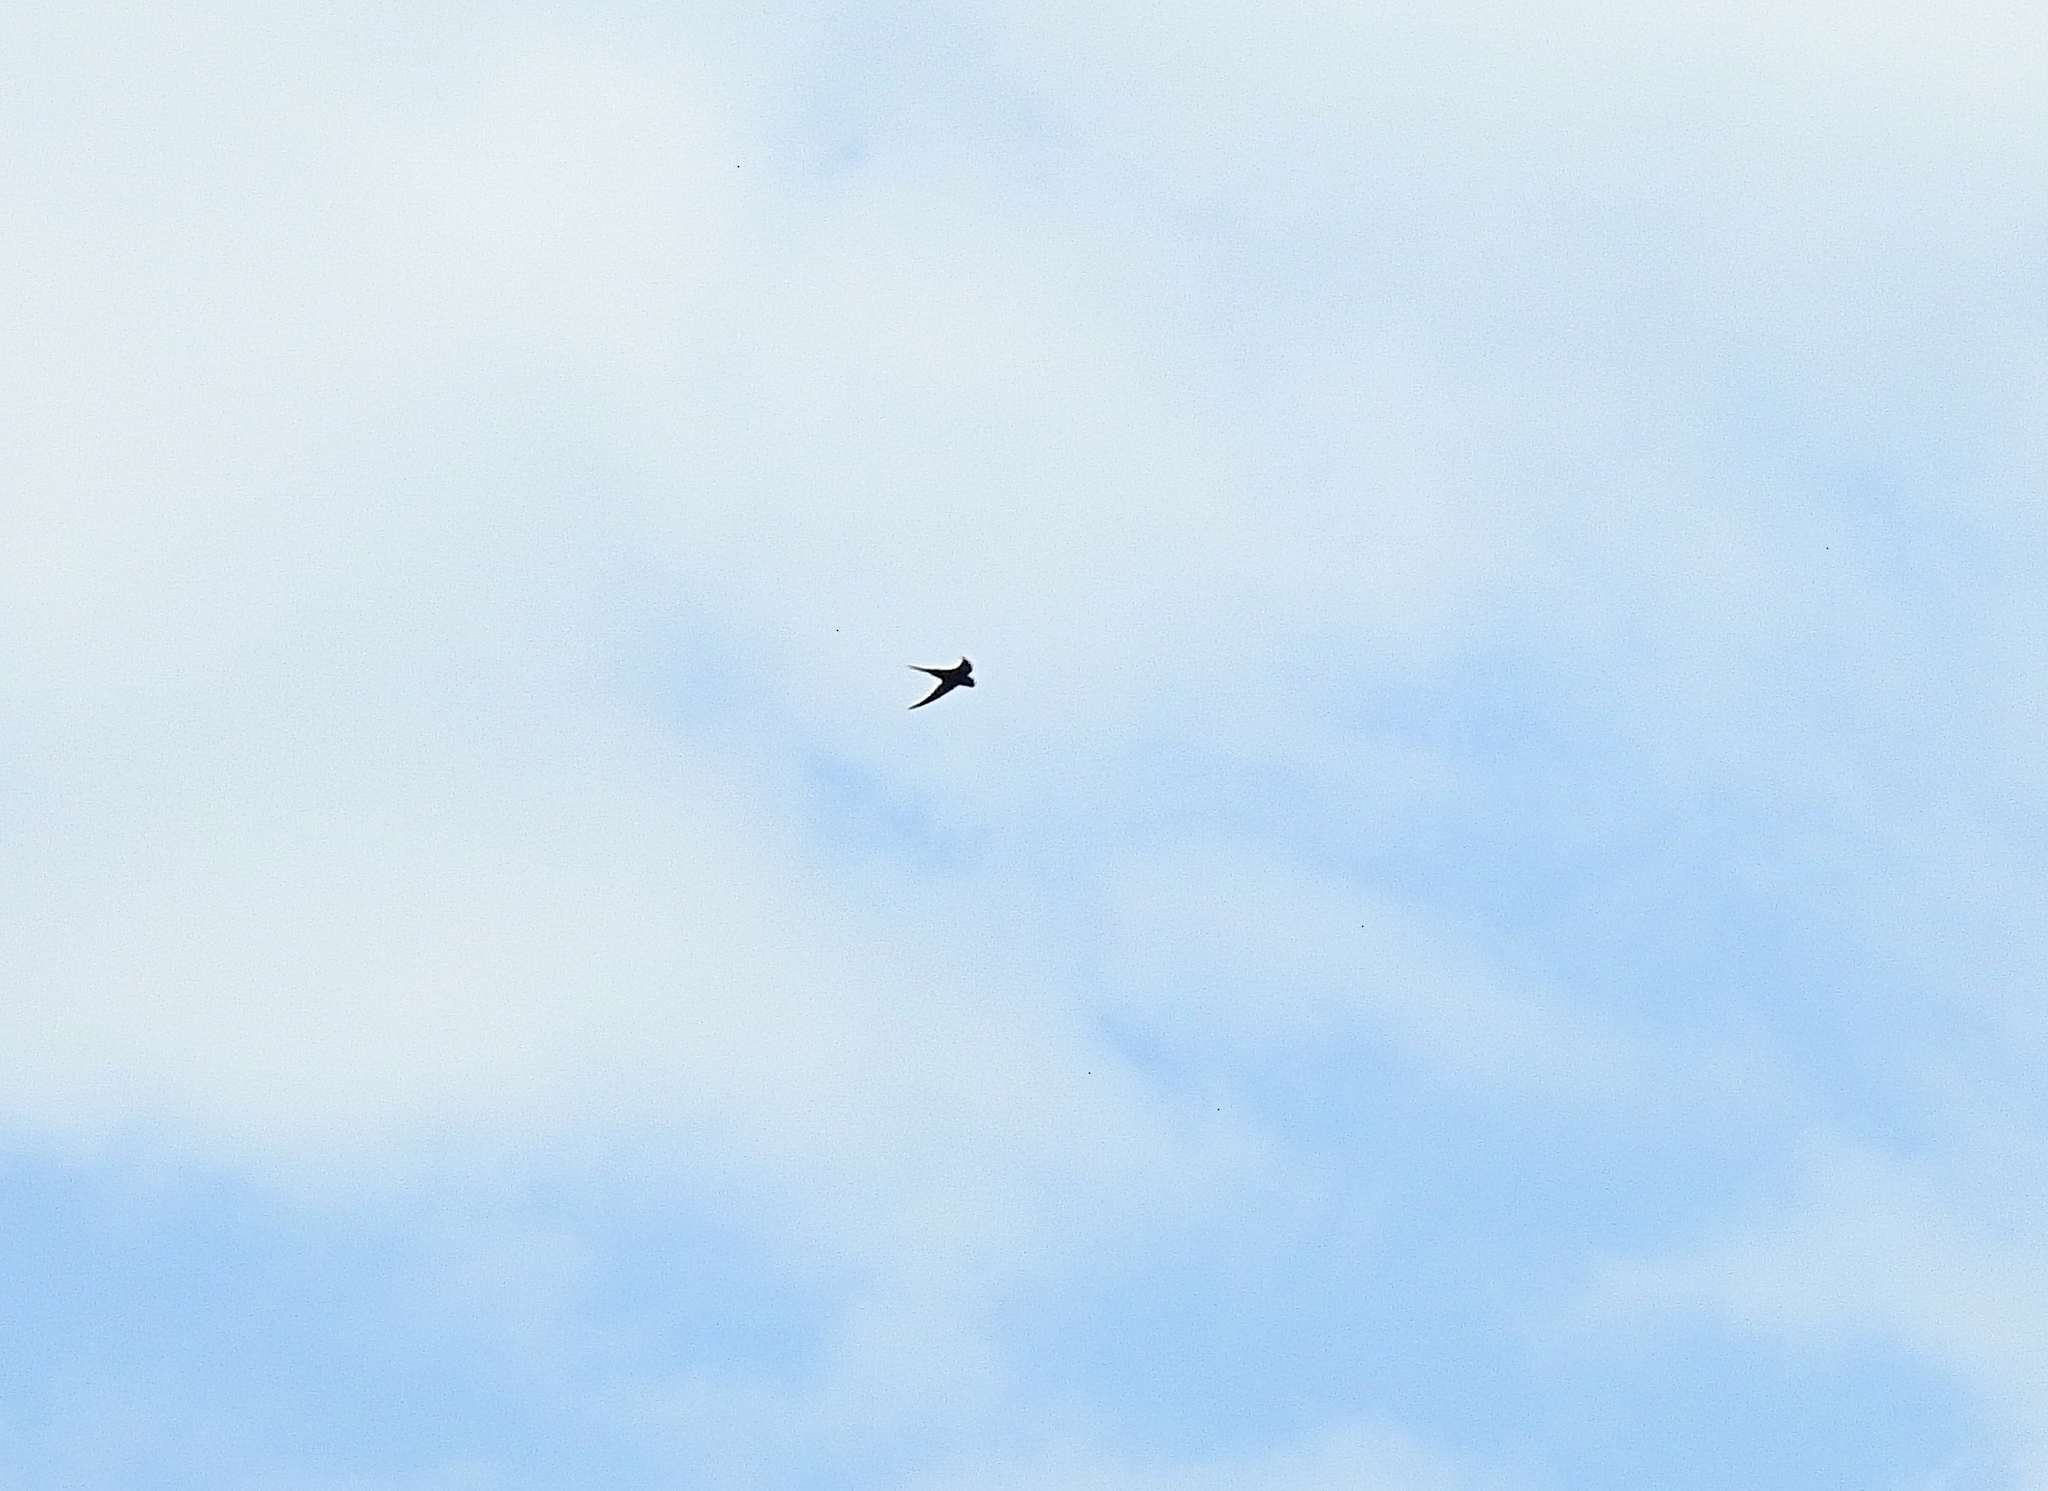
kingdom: Animalia
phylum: Chordata
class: Aves
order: Apodiformes
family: Apodidae
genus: Apus
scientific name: Apus apus
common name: Common swift
